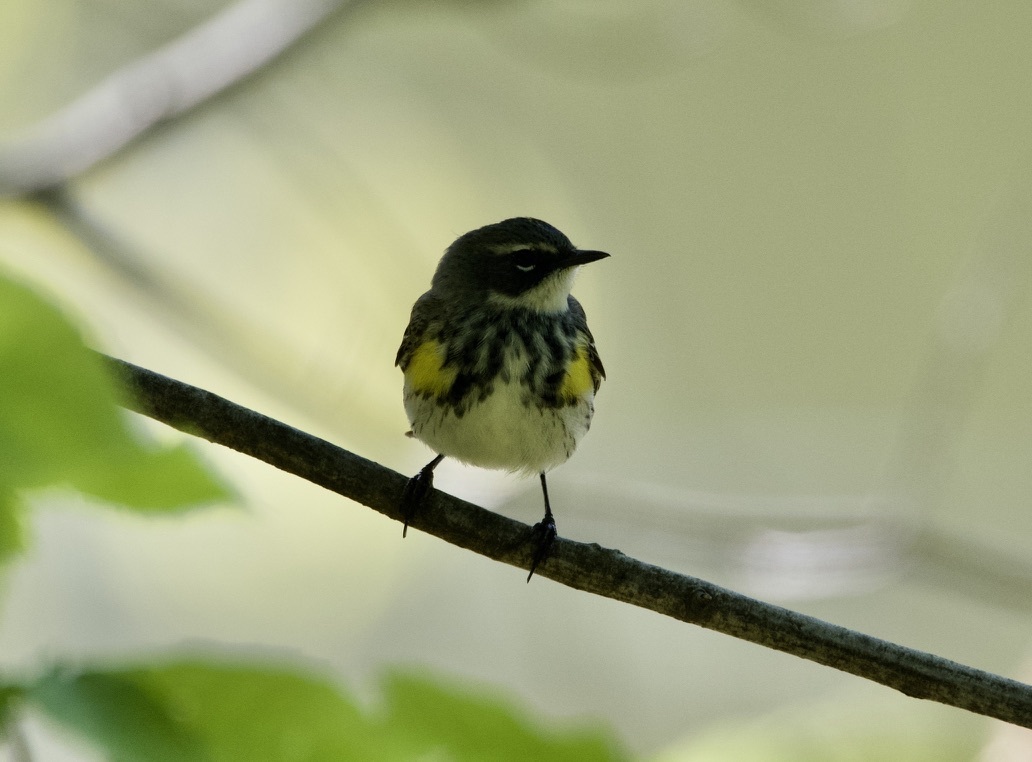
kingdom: Animalia
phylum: Chordata
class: Aves
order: Passeriformes
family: Parulidae
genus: Setophaga
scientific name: Setophaga coronata
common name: Myrtle warbler
